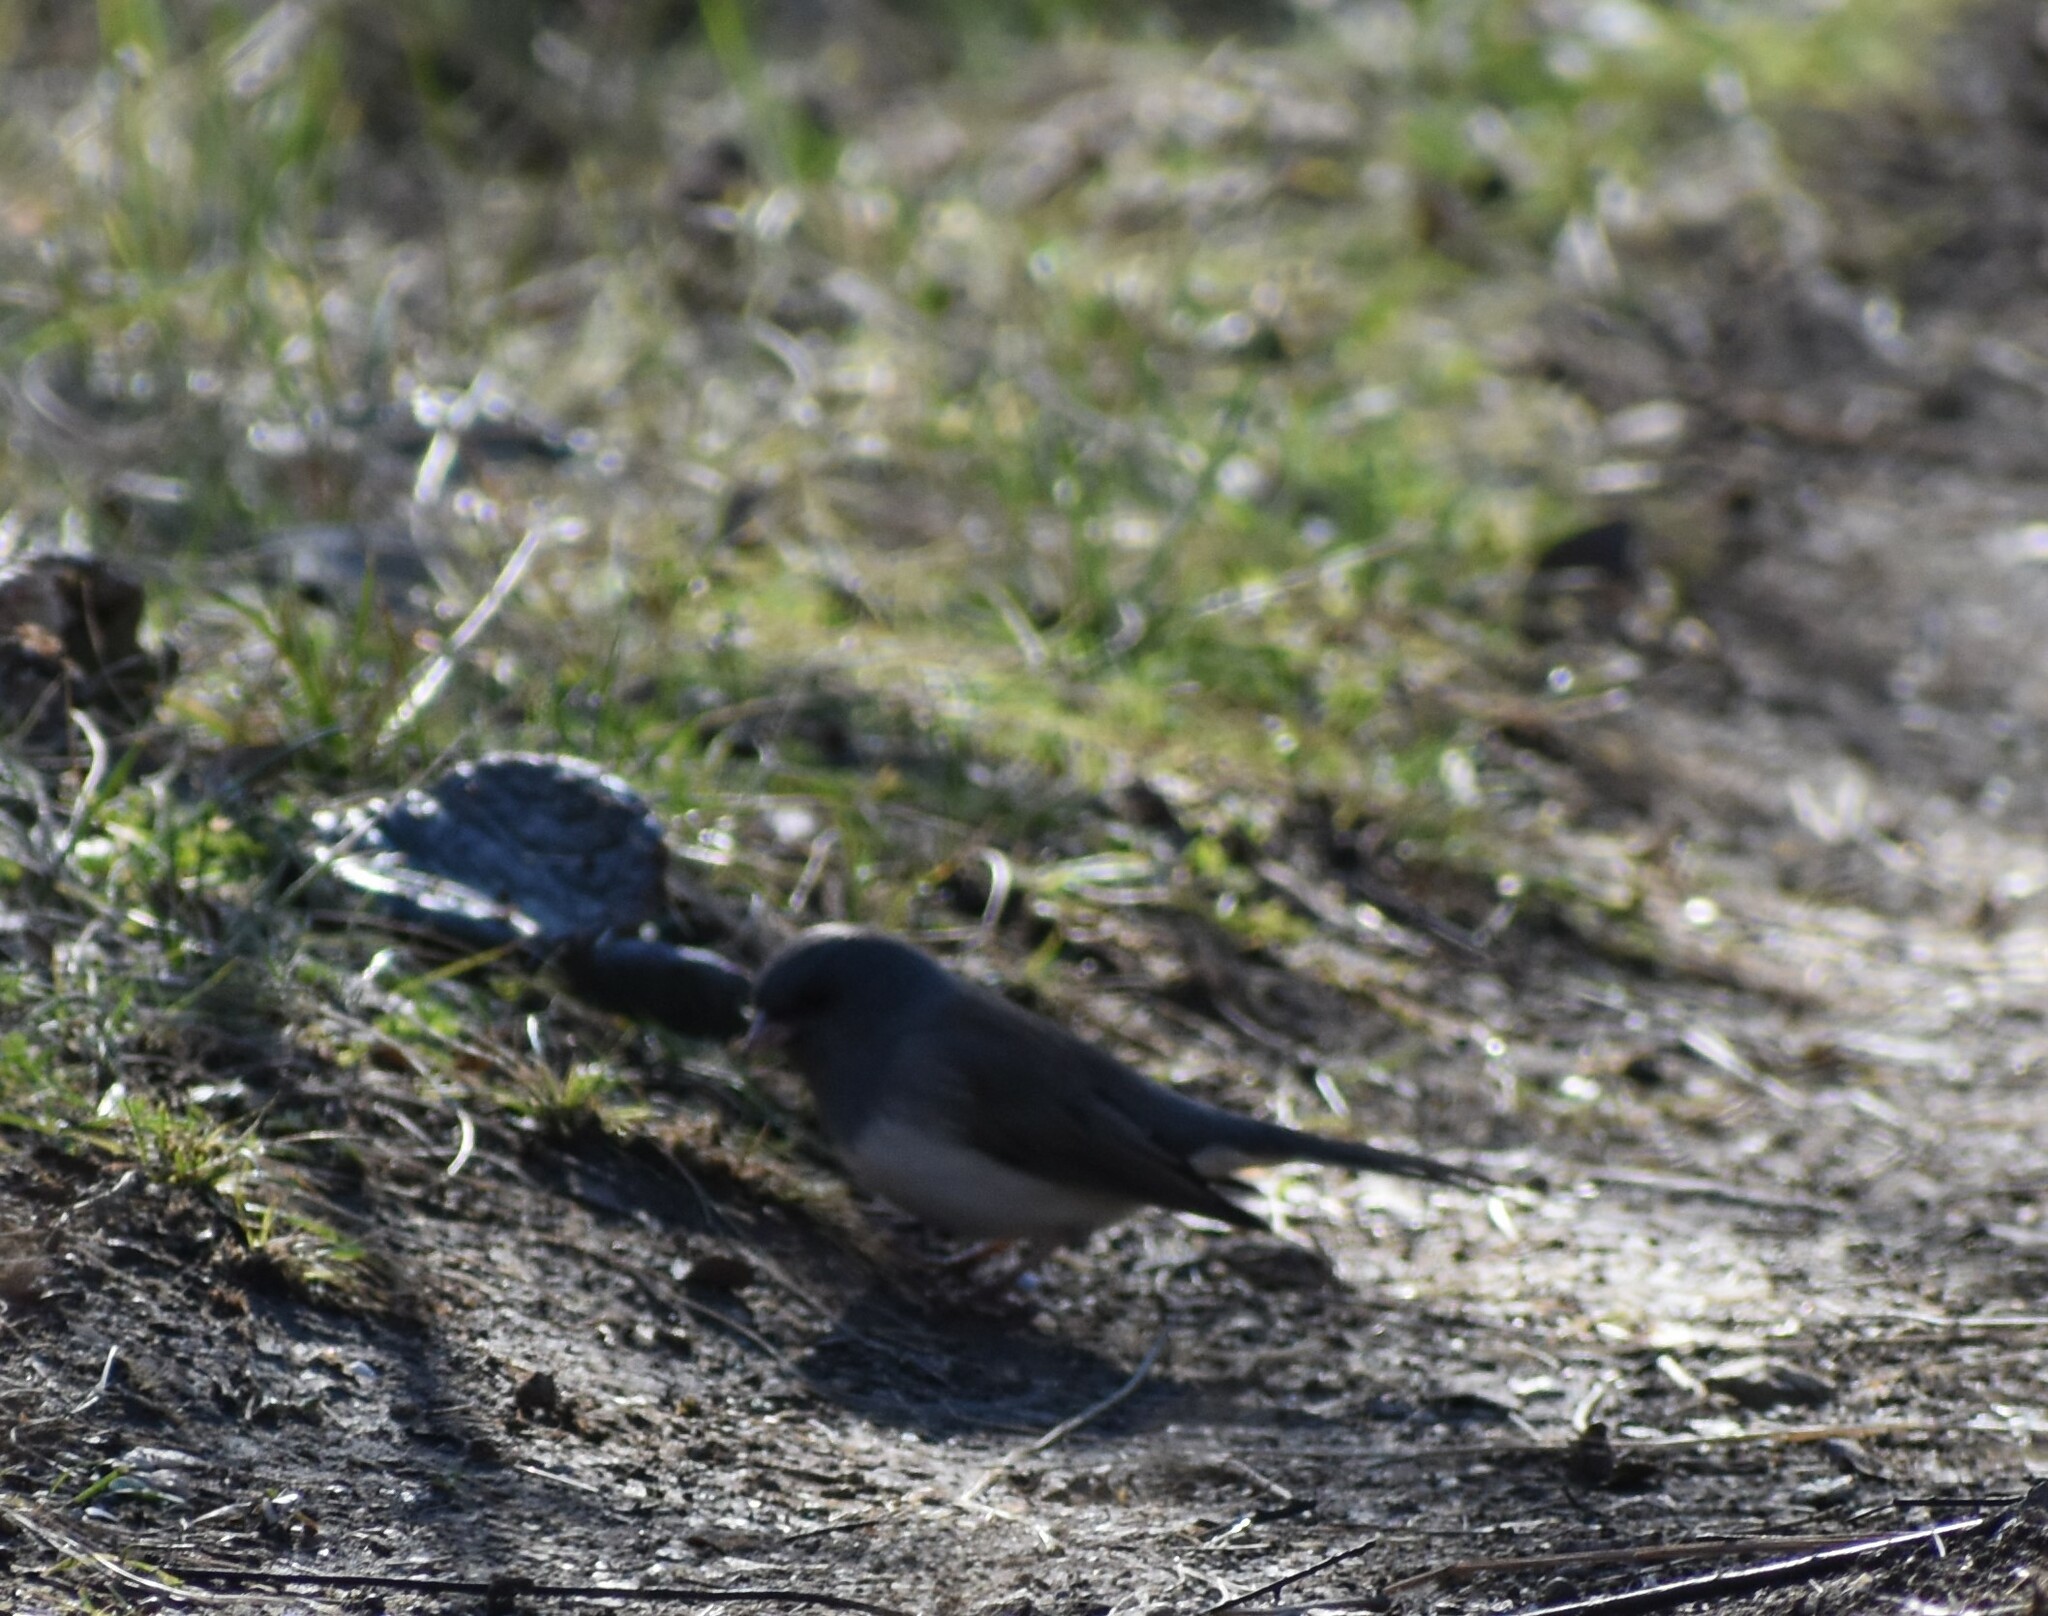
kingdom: Animalia
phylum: Chordata
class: Aves
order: Passeriformes
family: Passerellidae
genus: Junco
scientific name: Junco hyemalis
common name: Dark-eyed junco
